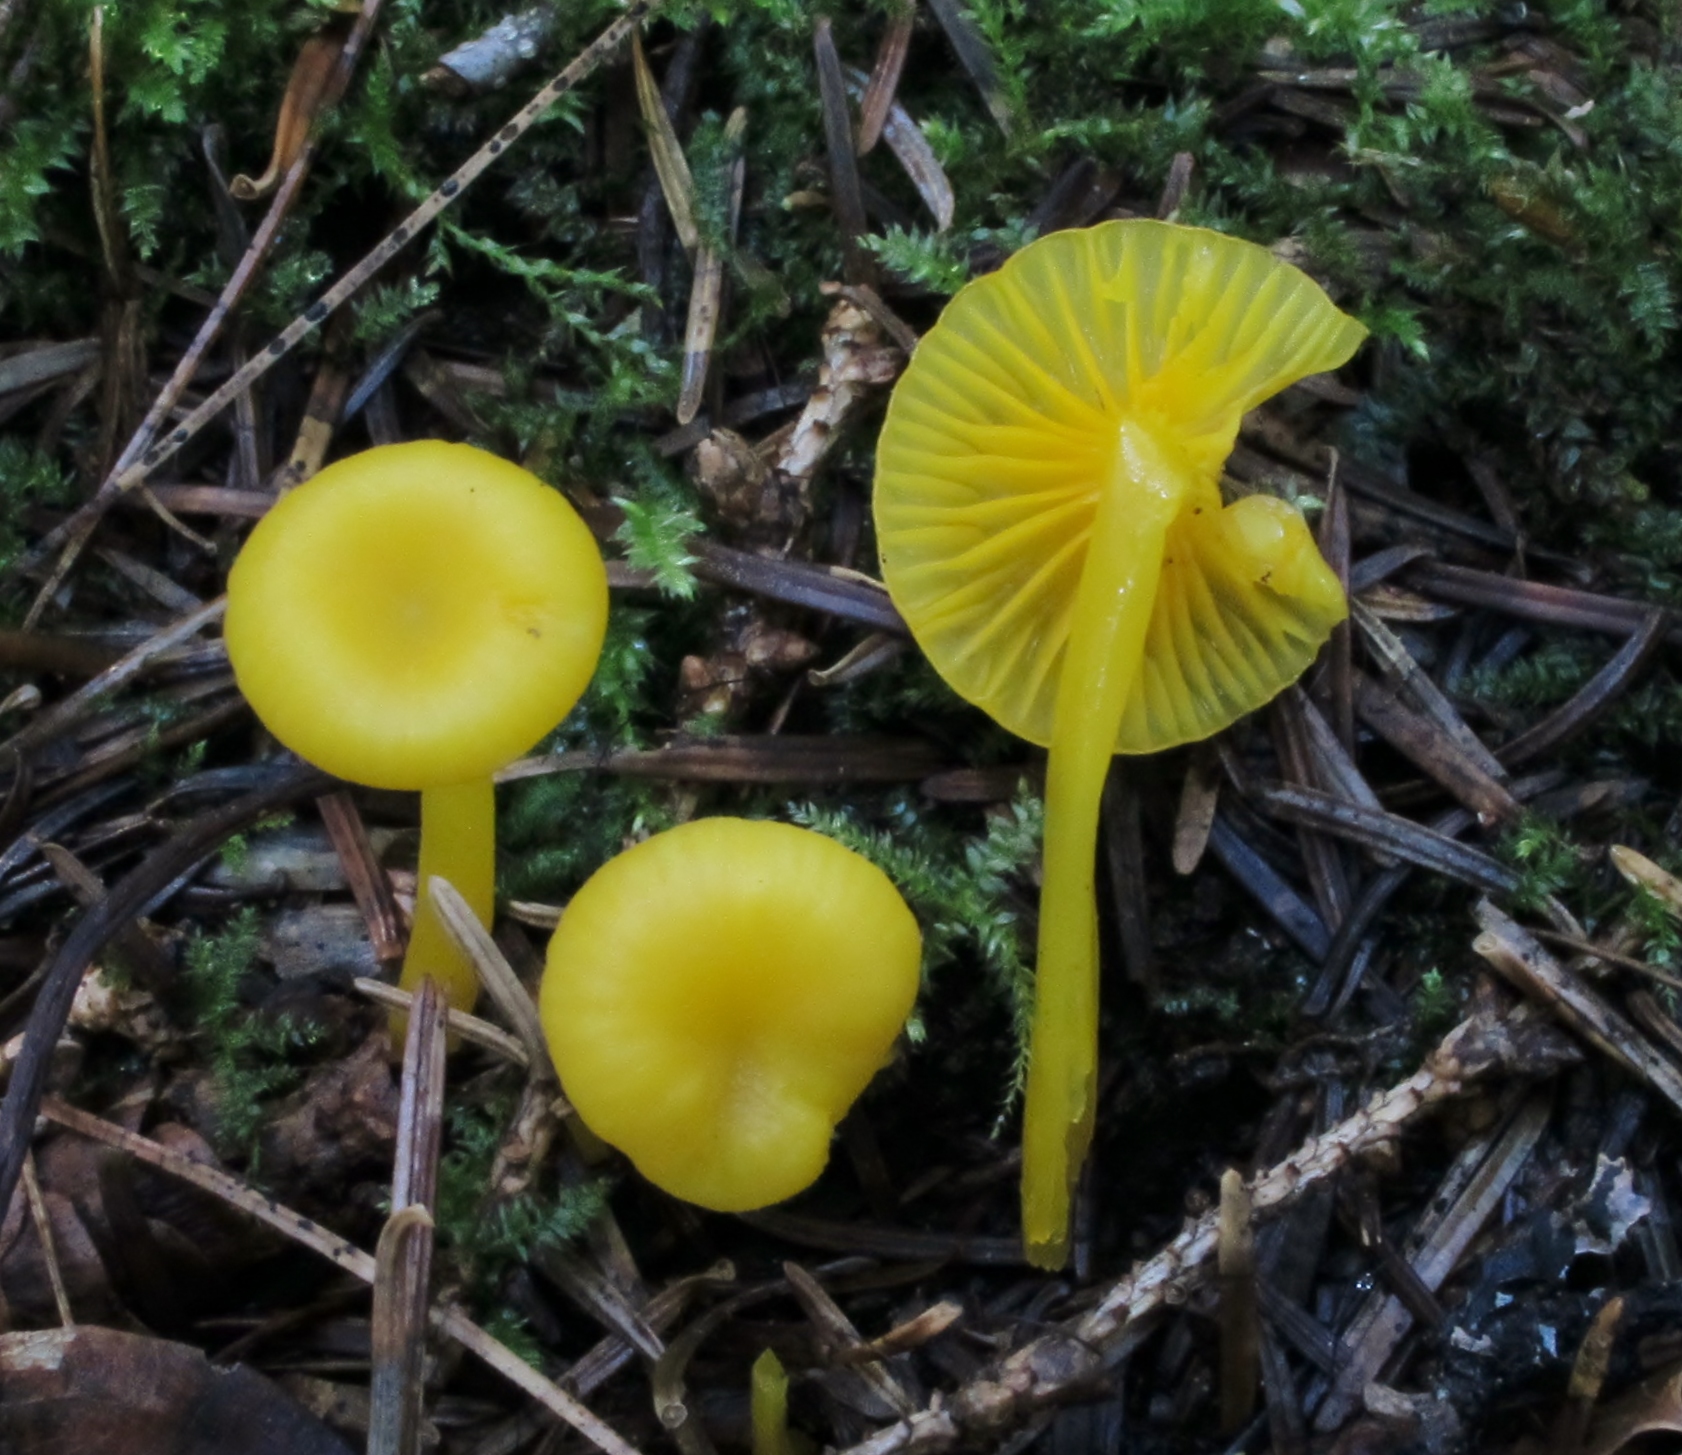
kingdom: Fungi
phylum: Basidiomycota
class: Agaricomycetes
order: Agaricales
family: Hygrophoraceae
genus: Gloioxanthomyces
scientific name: Gloioxanthomyces nitidus
